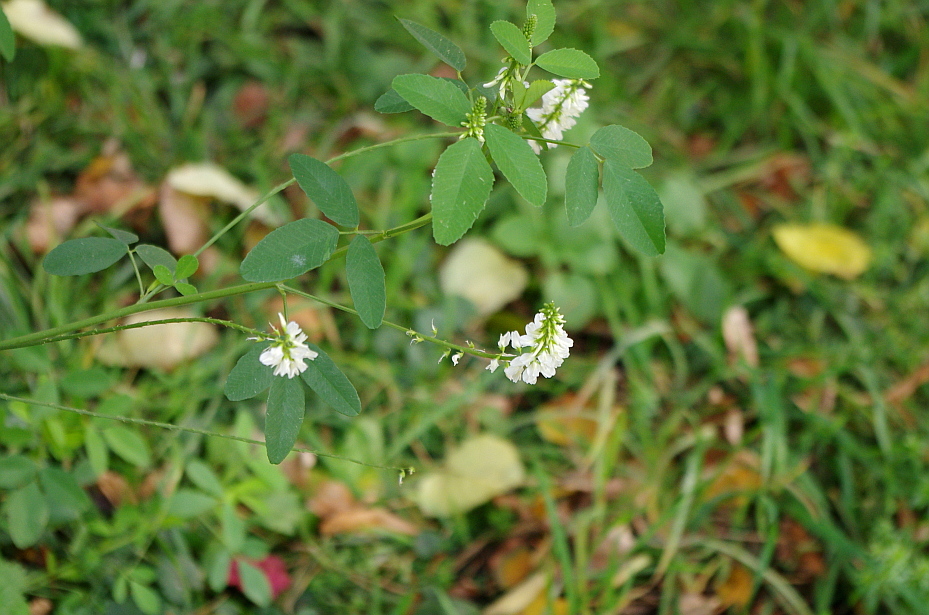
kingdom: Plantae
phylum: Tracheophyta
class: Magnoliopsida
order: Fabales
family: Fabaceae
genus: Melilotus
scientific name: Melilotus albus
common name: White melilot
